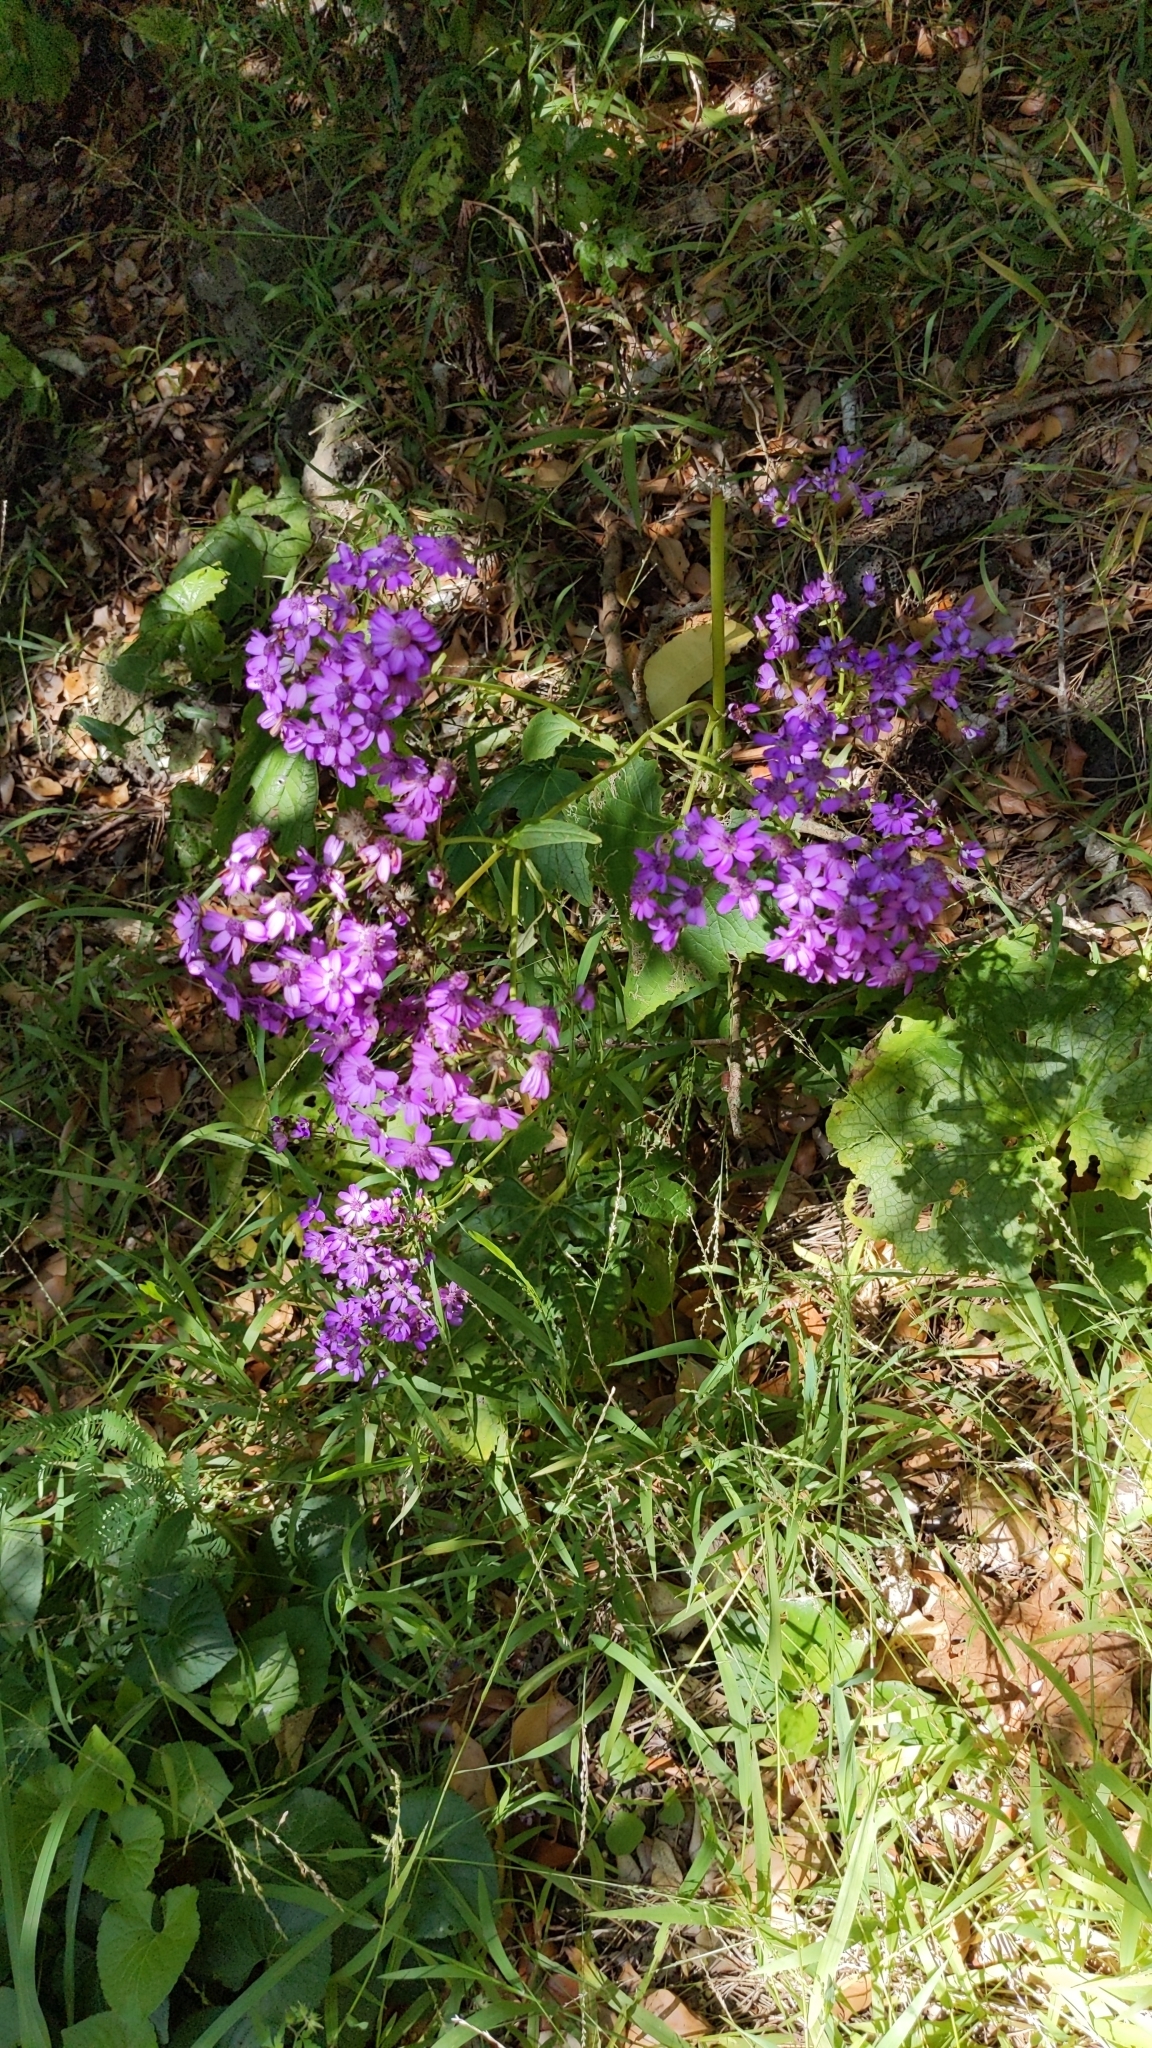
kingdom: Plantae
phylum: Tracheophyta
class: Magnoliopsida
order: Asterales
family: Asteraceae
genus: Pericallis
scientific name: Pericallis hybrida
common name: Cineraria
